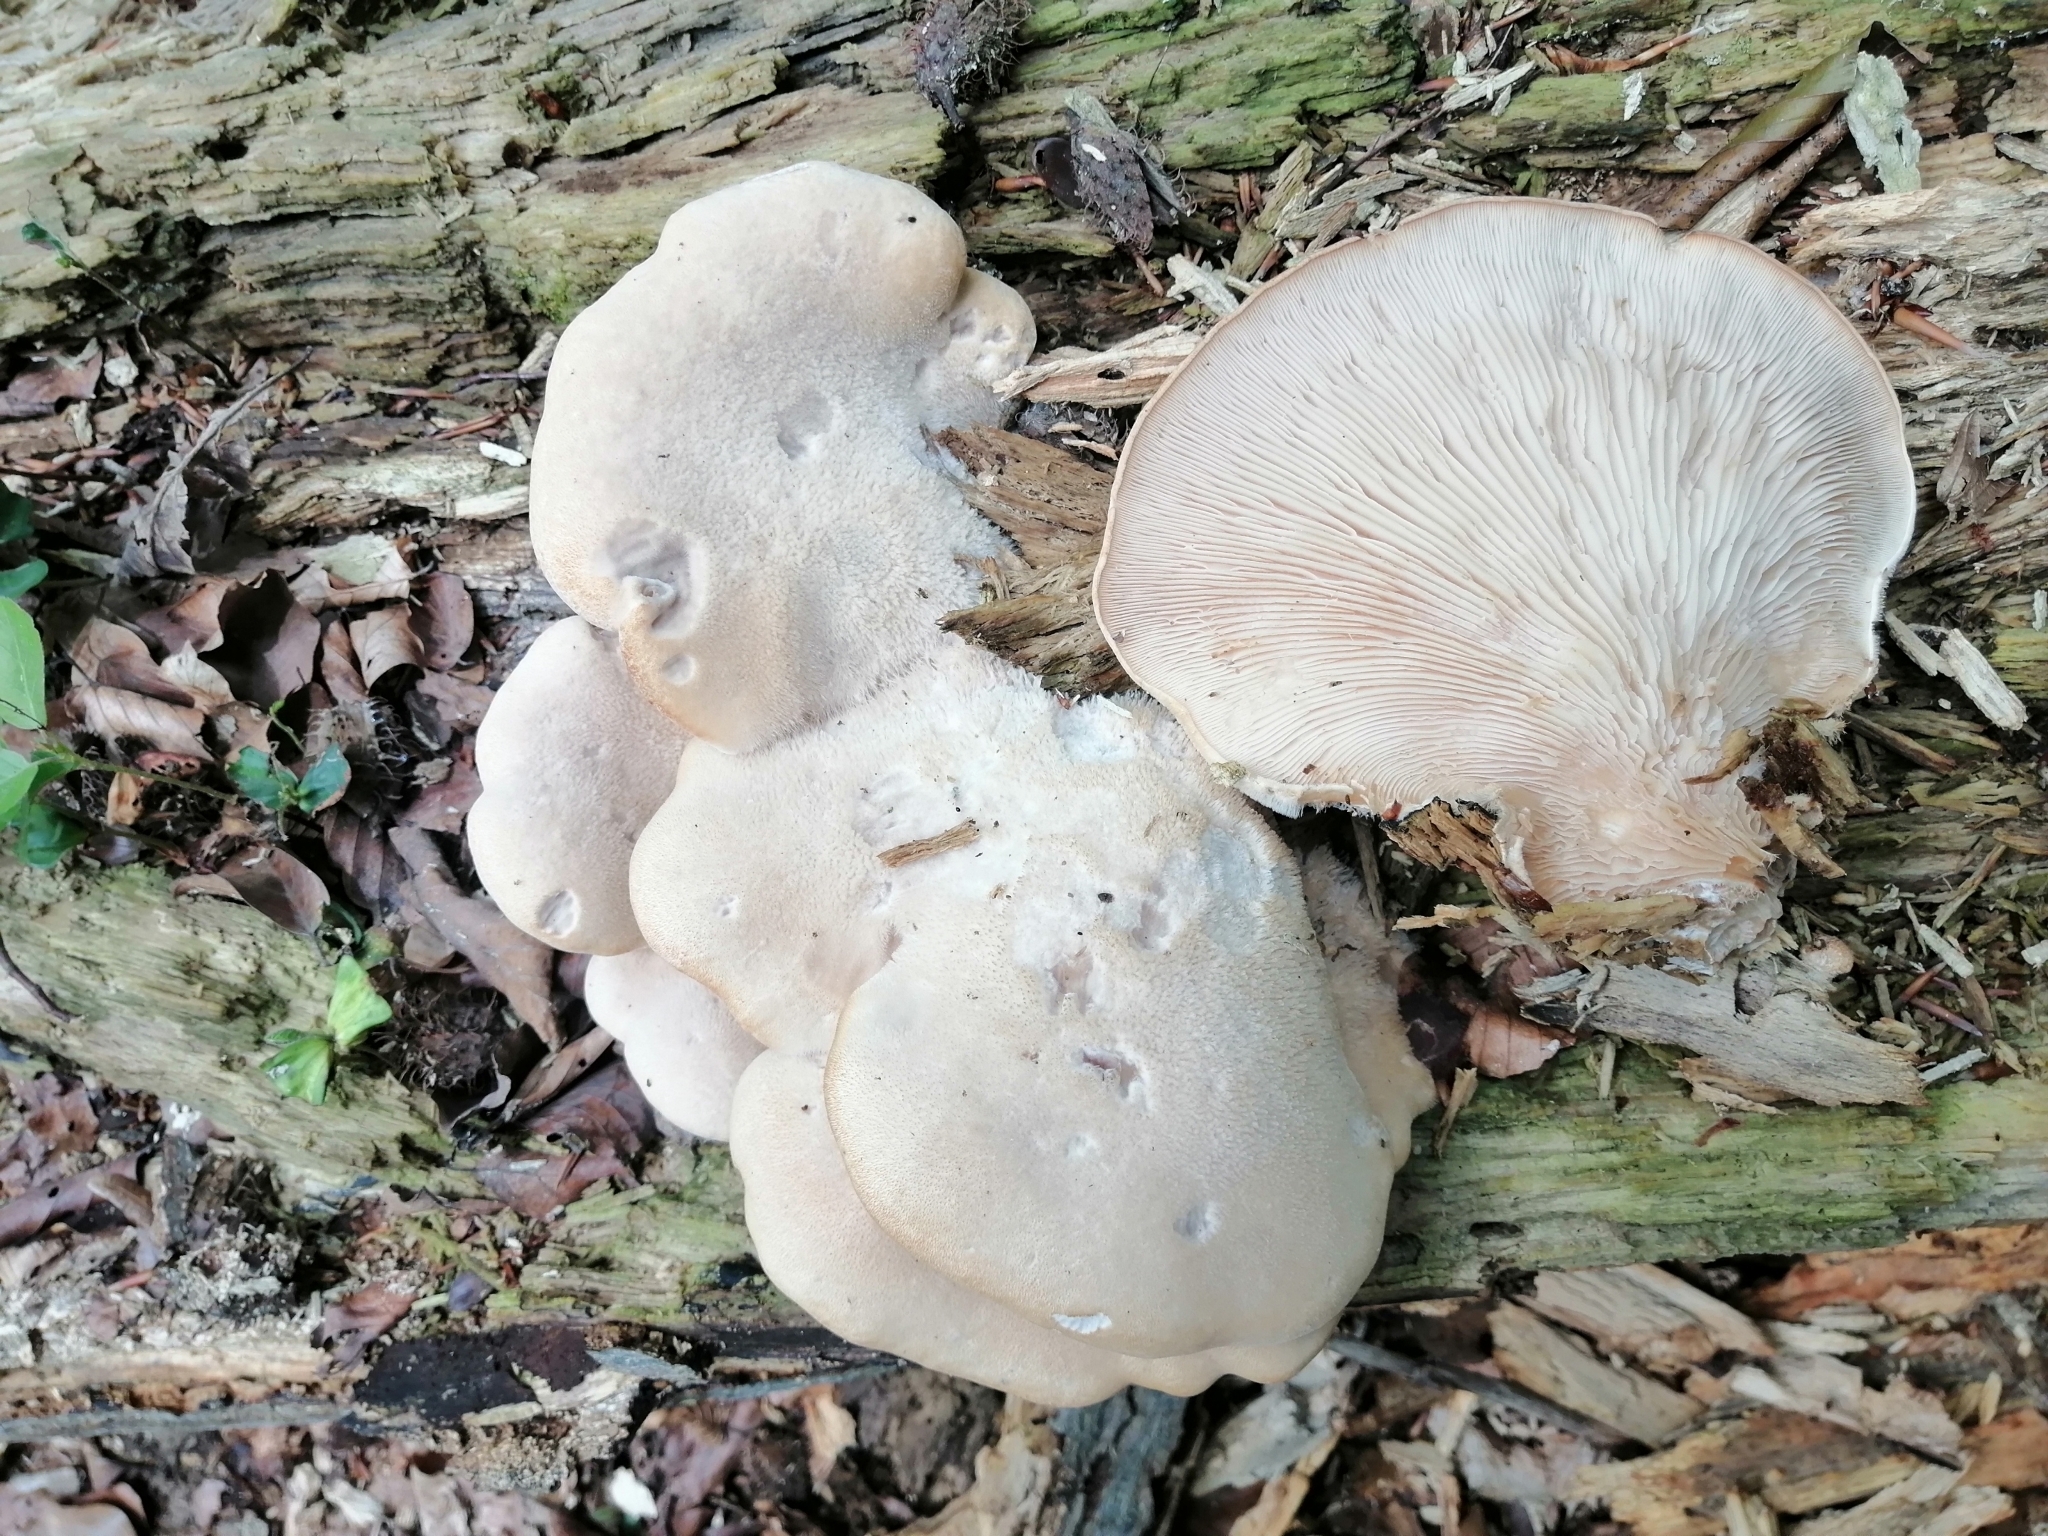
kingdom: Fungi
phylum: Basidiomycota
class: Agaricomycetes
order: Agaricales
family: Pleurotaceae
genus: Lignomyces
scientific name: Lignomyces vetlinianus
